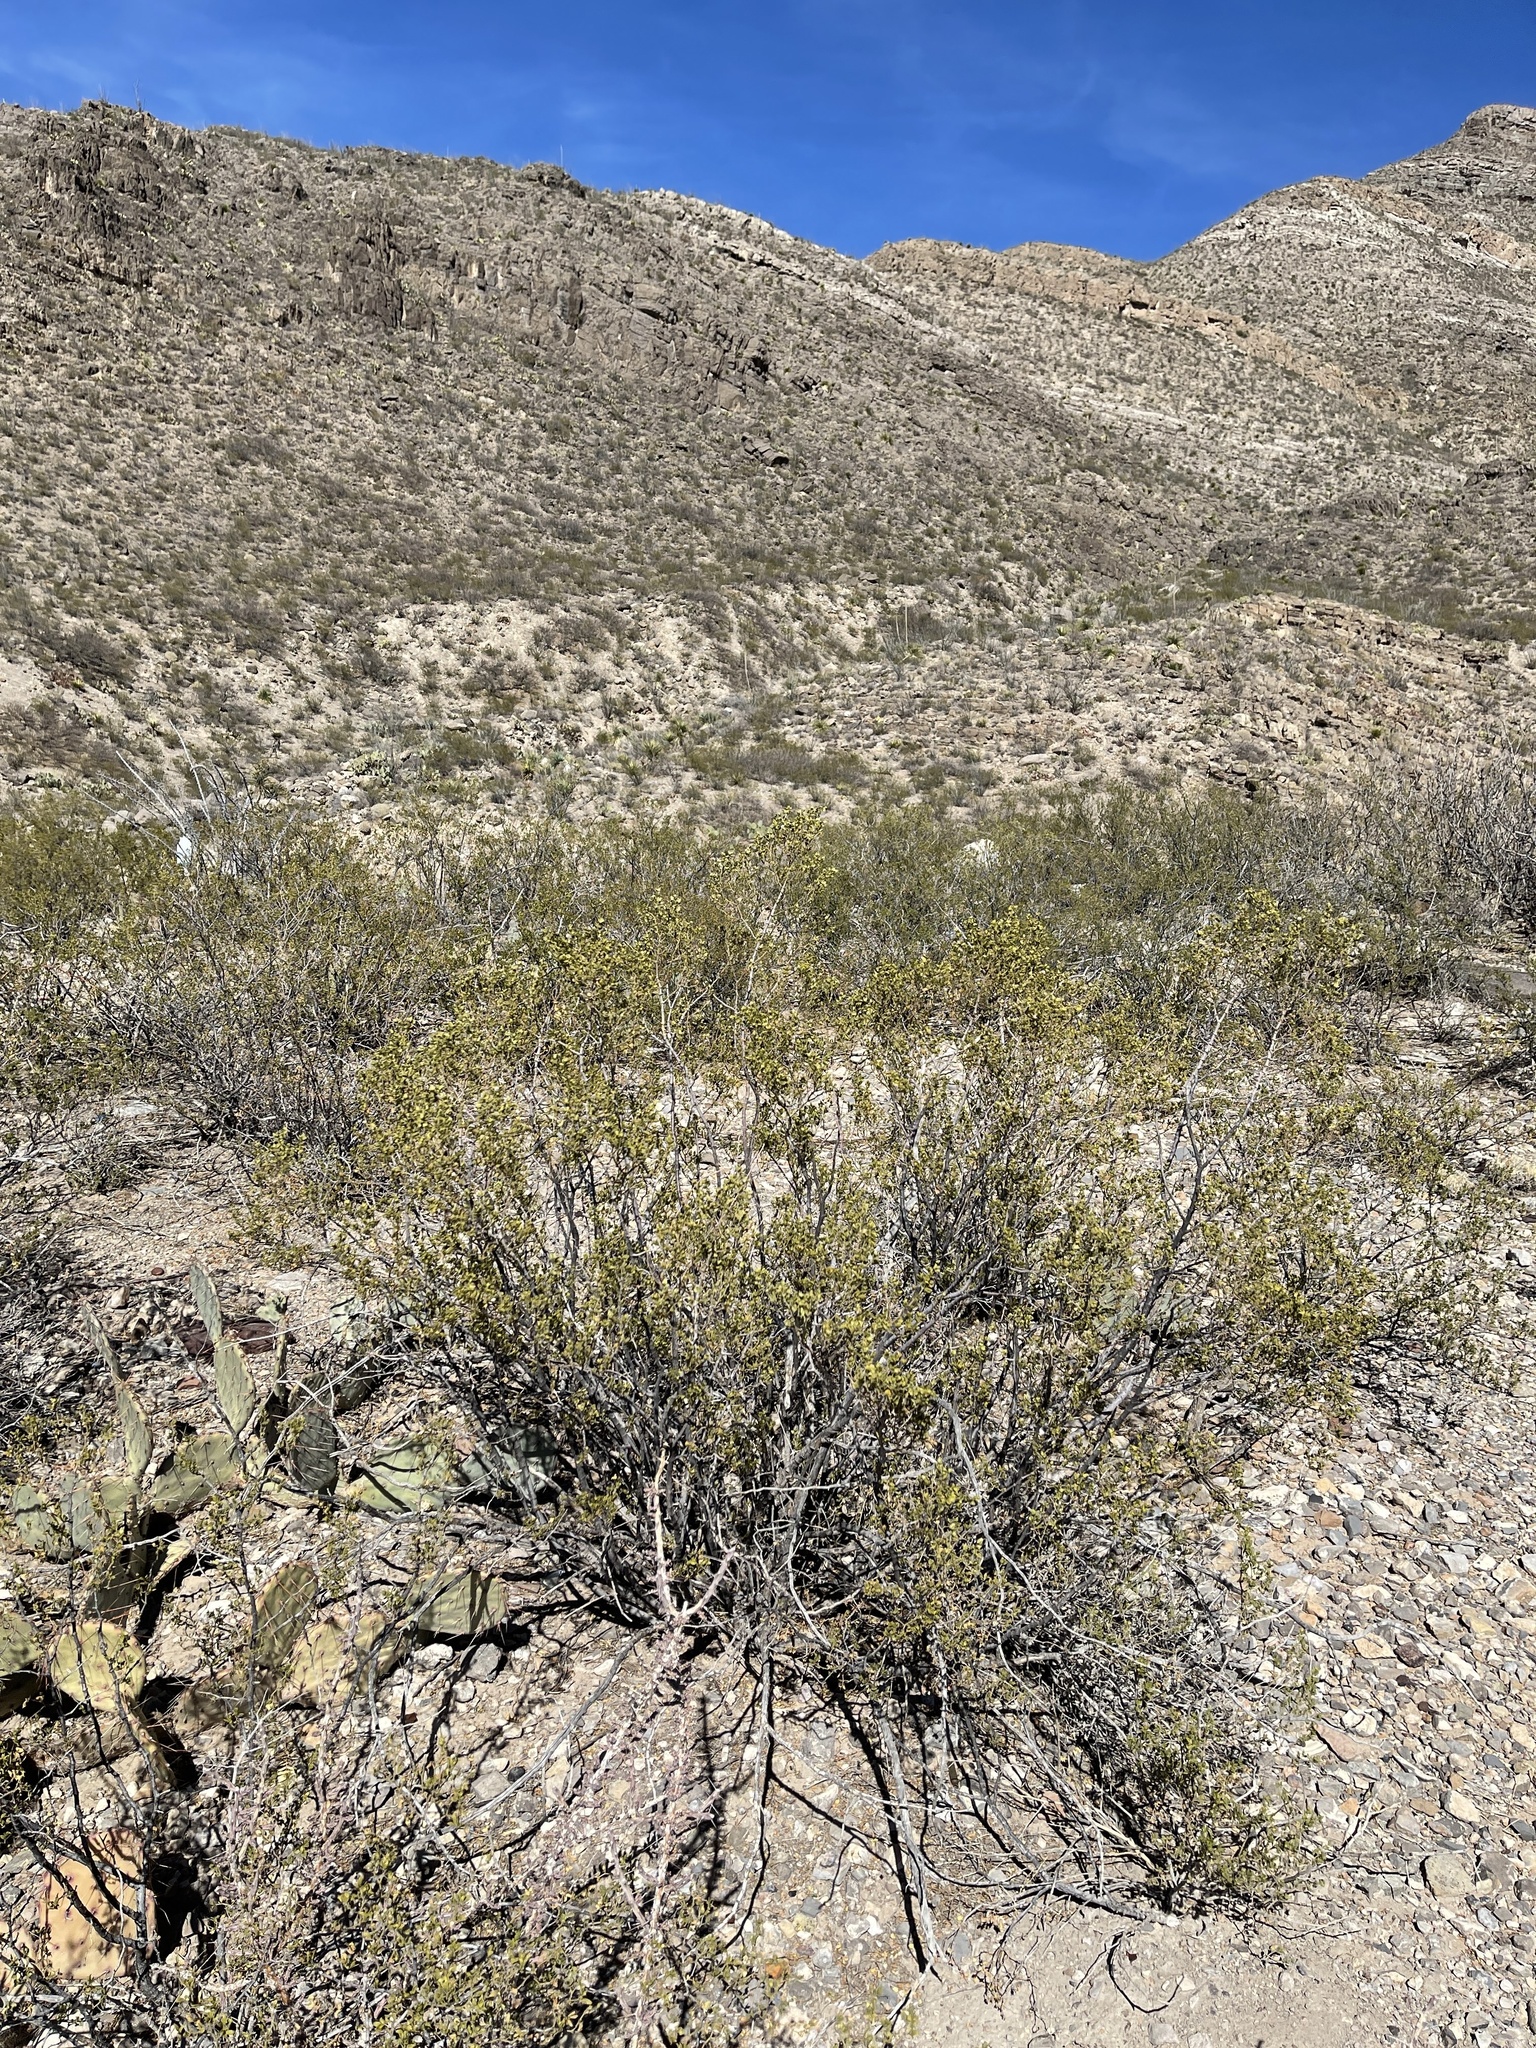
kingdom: Plantae
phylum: Tracheophyta
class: Magnoliopsida
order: Zygophyllales
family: Zygophyllaceae
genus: Larrea
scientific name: Larrea tridentata
